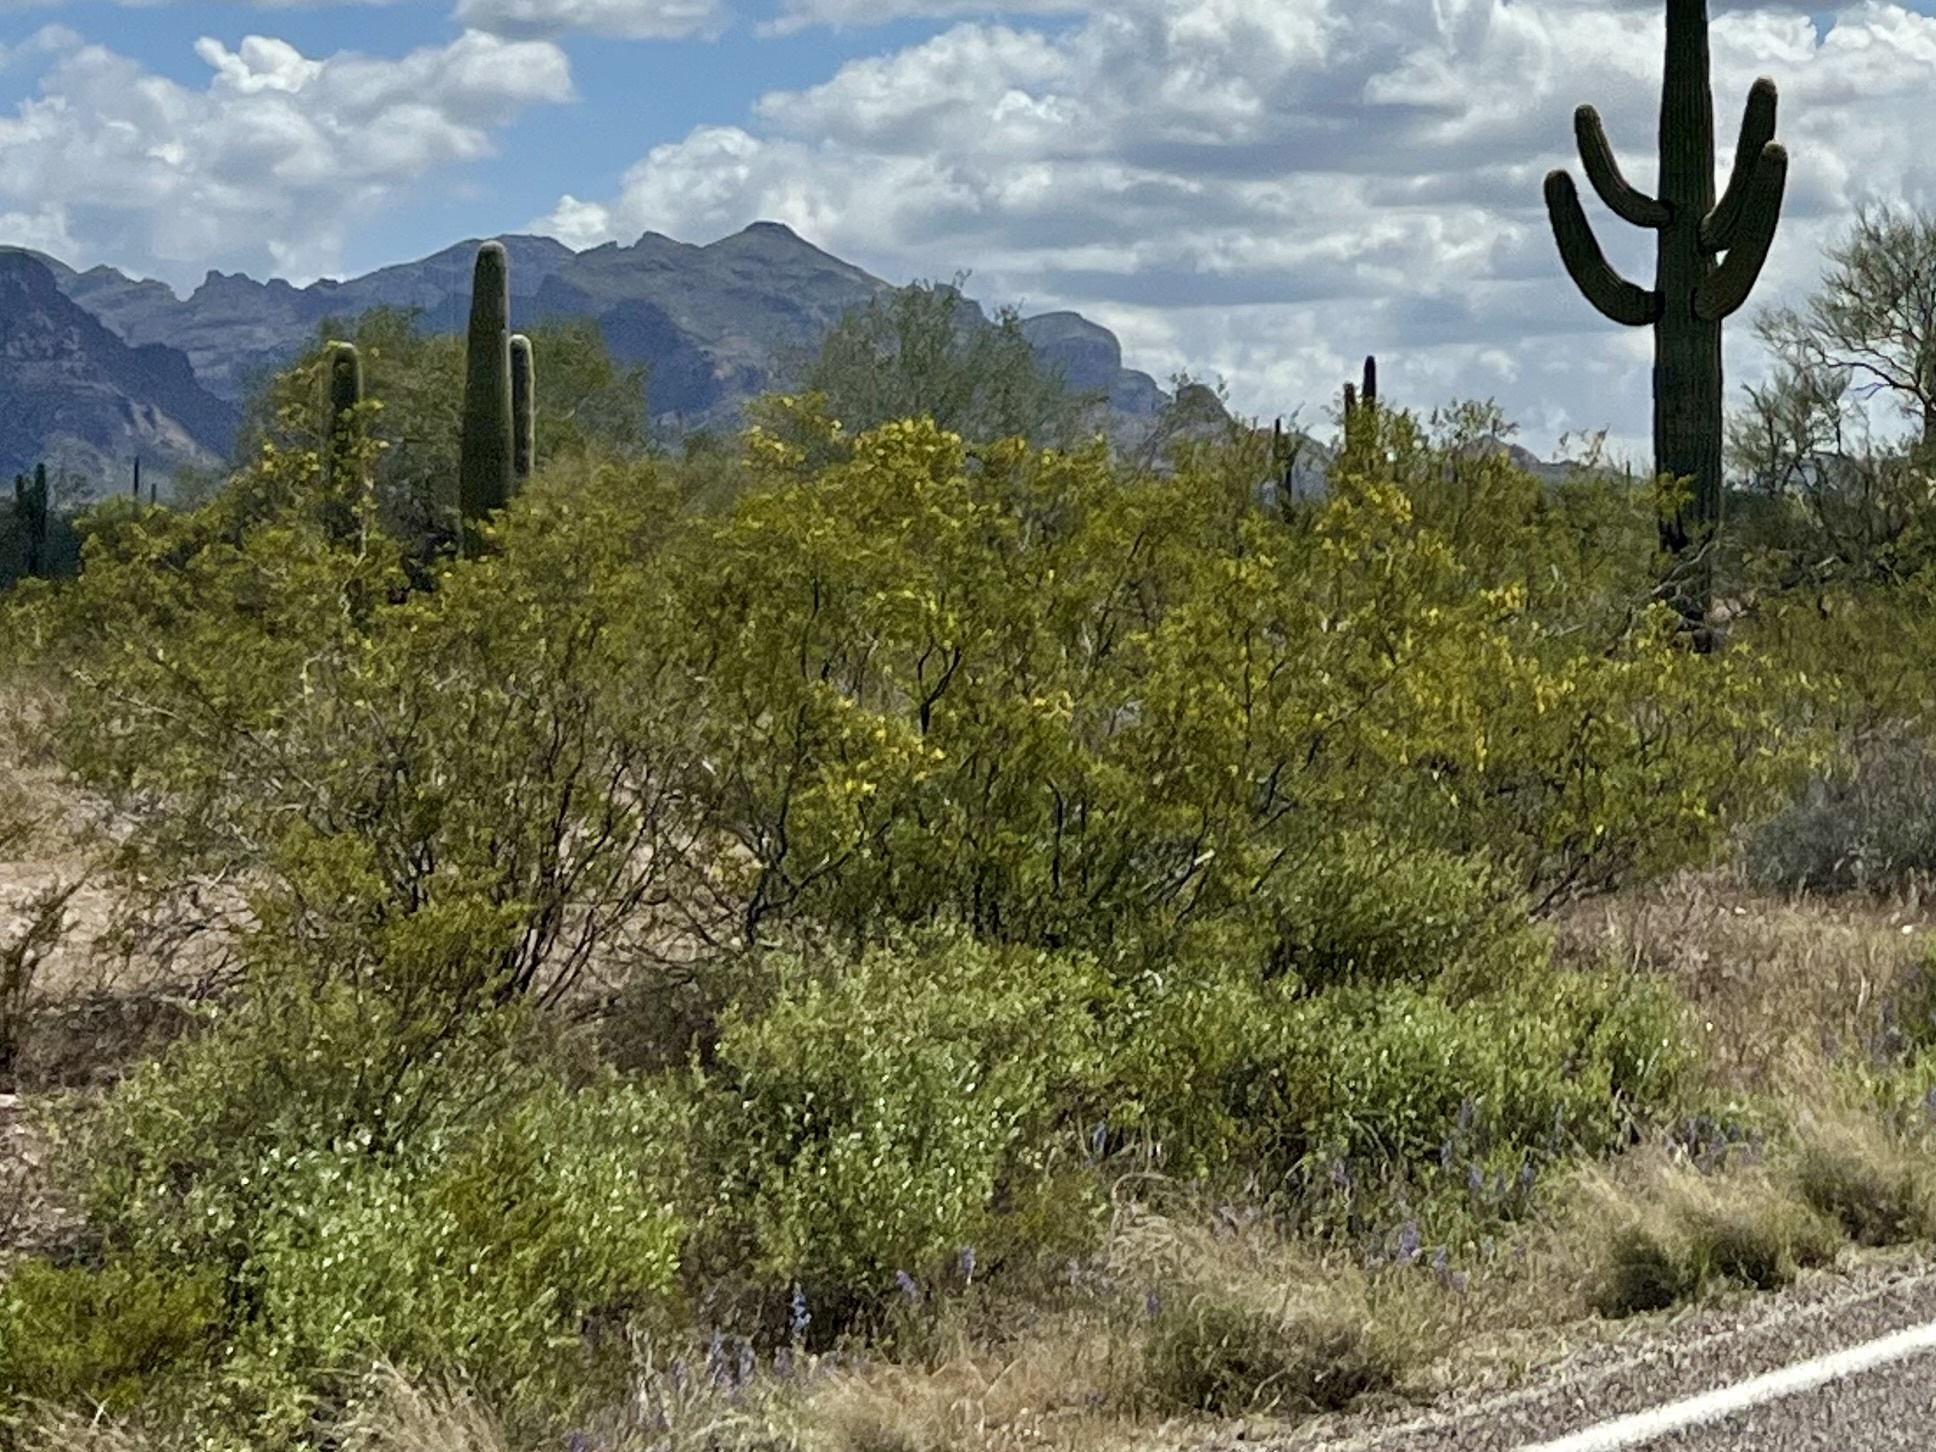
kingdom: Plantae
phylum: Tracheophyta
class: Magnoliopsida
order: Zygophyllales
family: Zygophyllaceae
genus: Larrea
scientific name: Larrea tridentata
